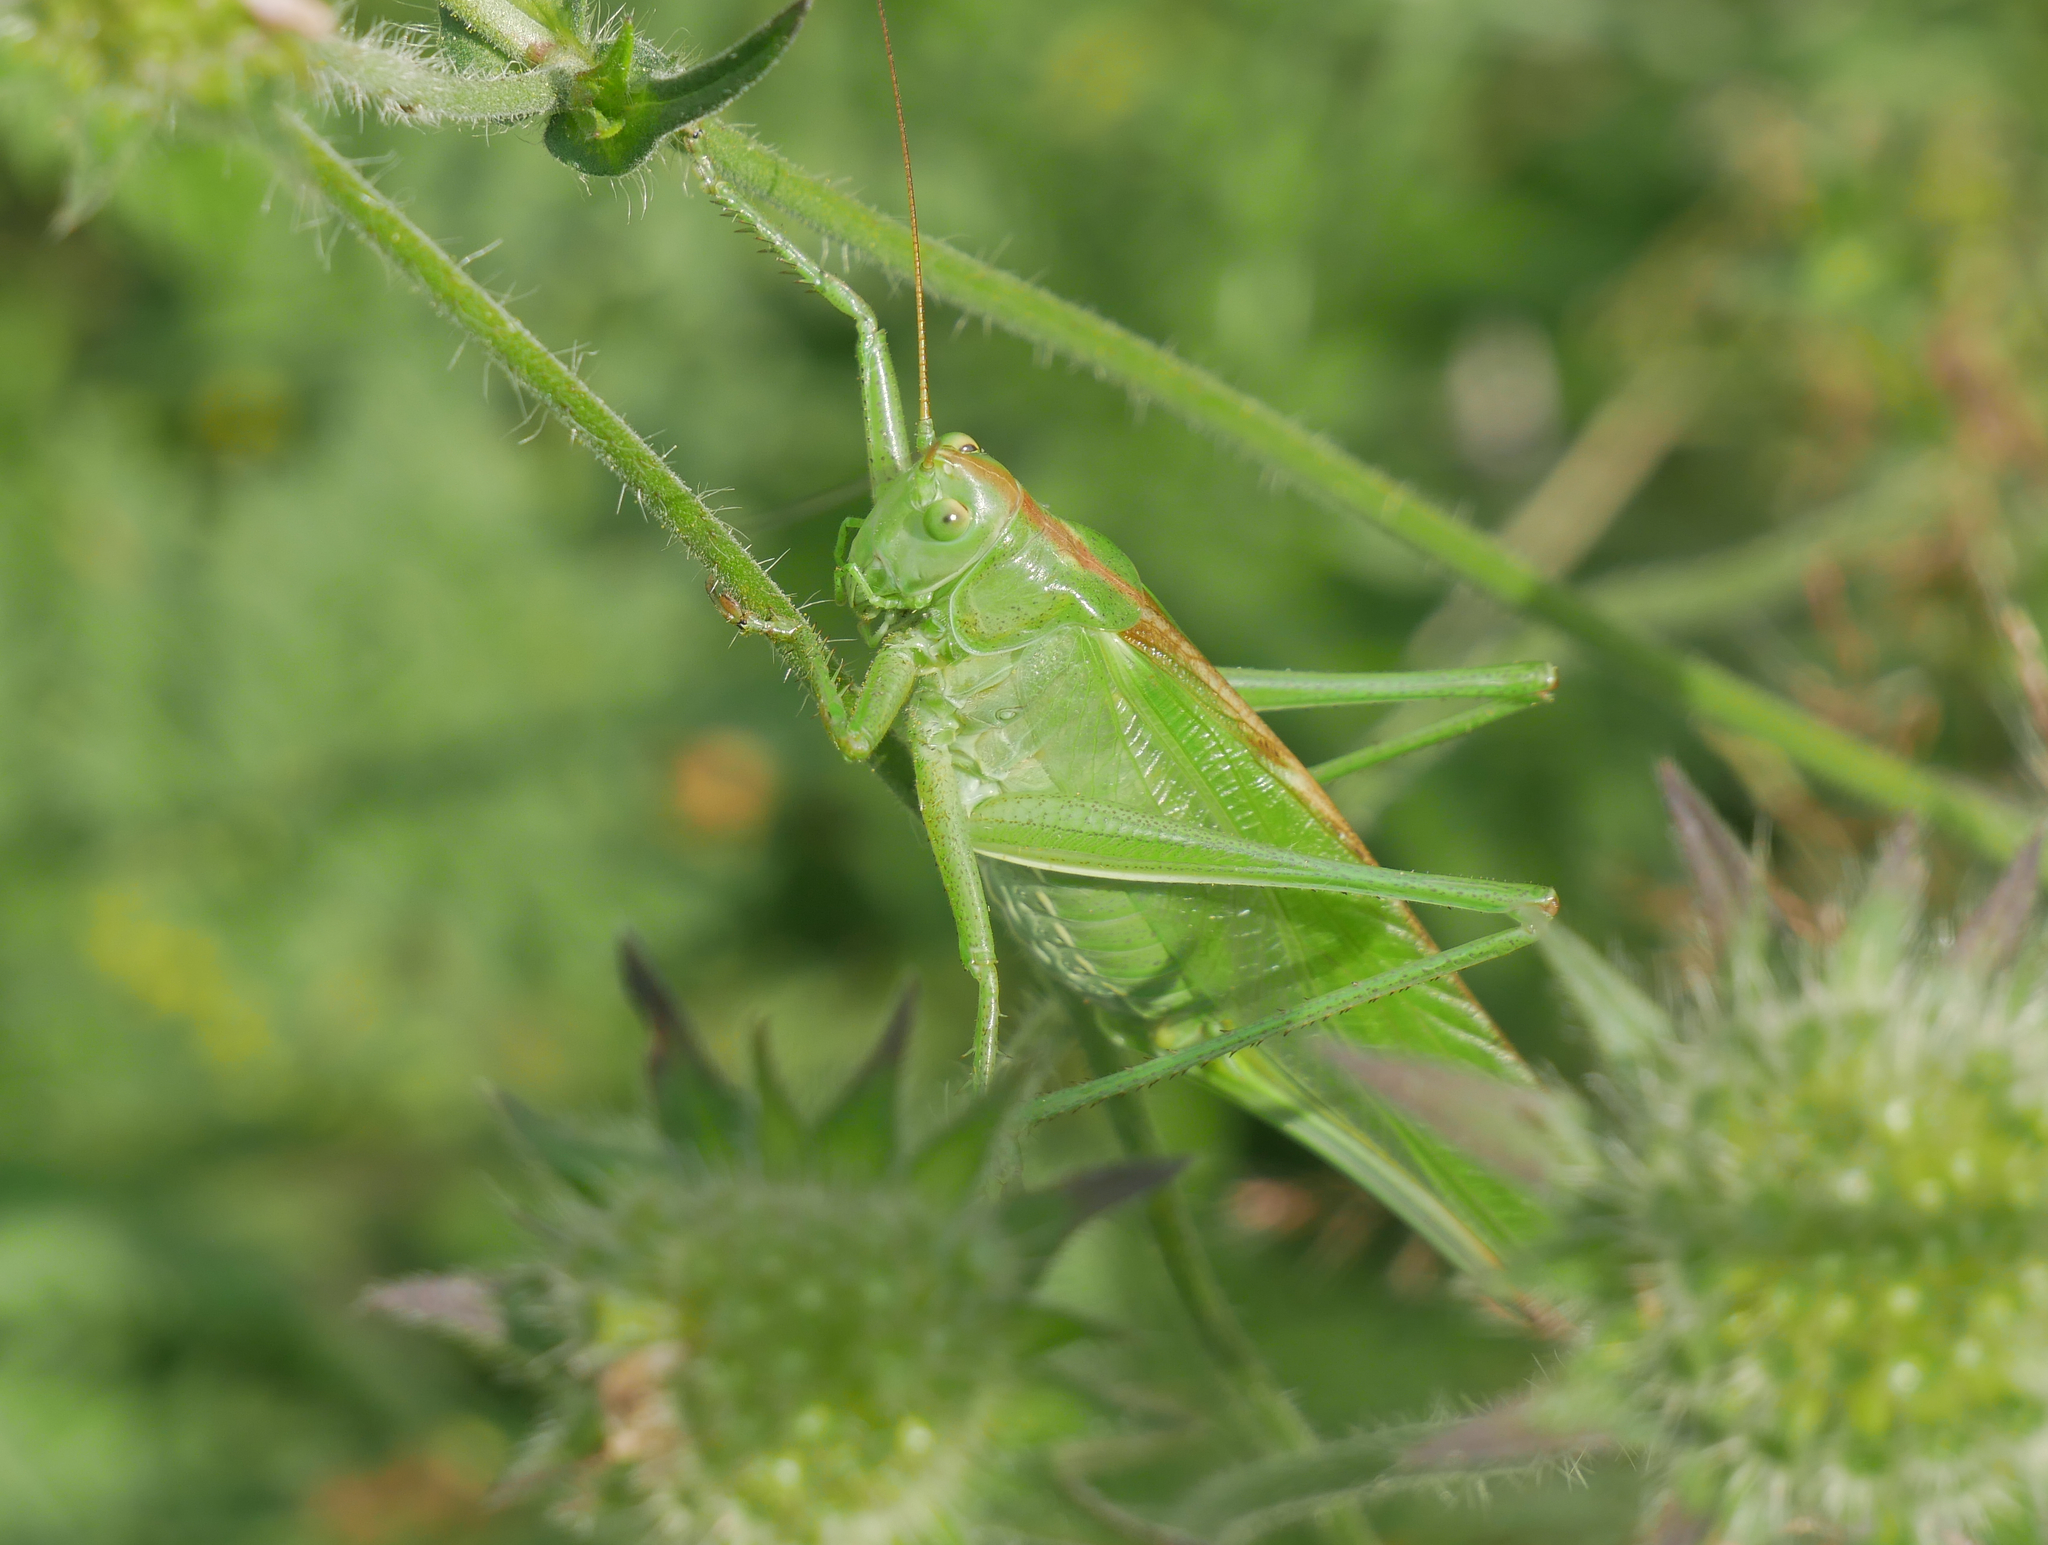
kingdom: Animalia
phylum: Arthropoda
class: Insecta
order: Orthoptera
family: Tettigoniidae
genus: Tettigonia
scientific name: Tettigonia viridissima
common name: Great green bush-cricket
